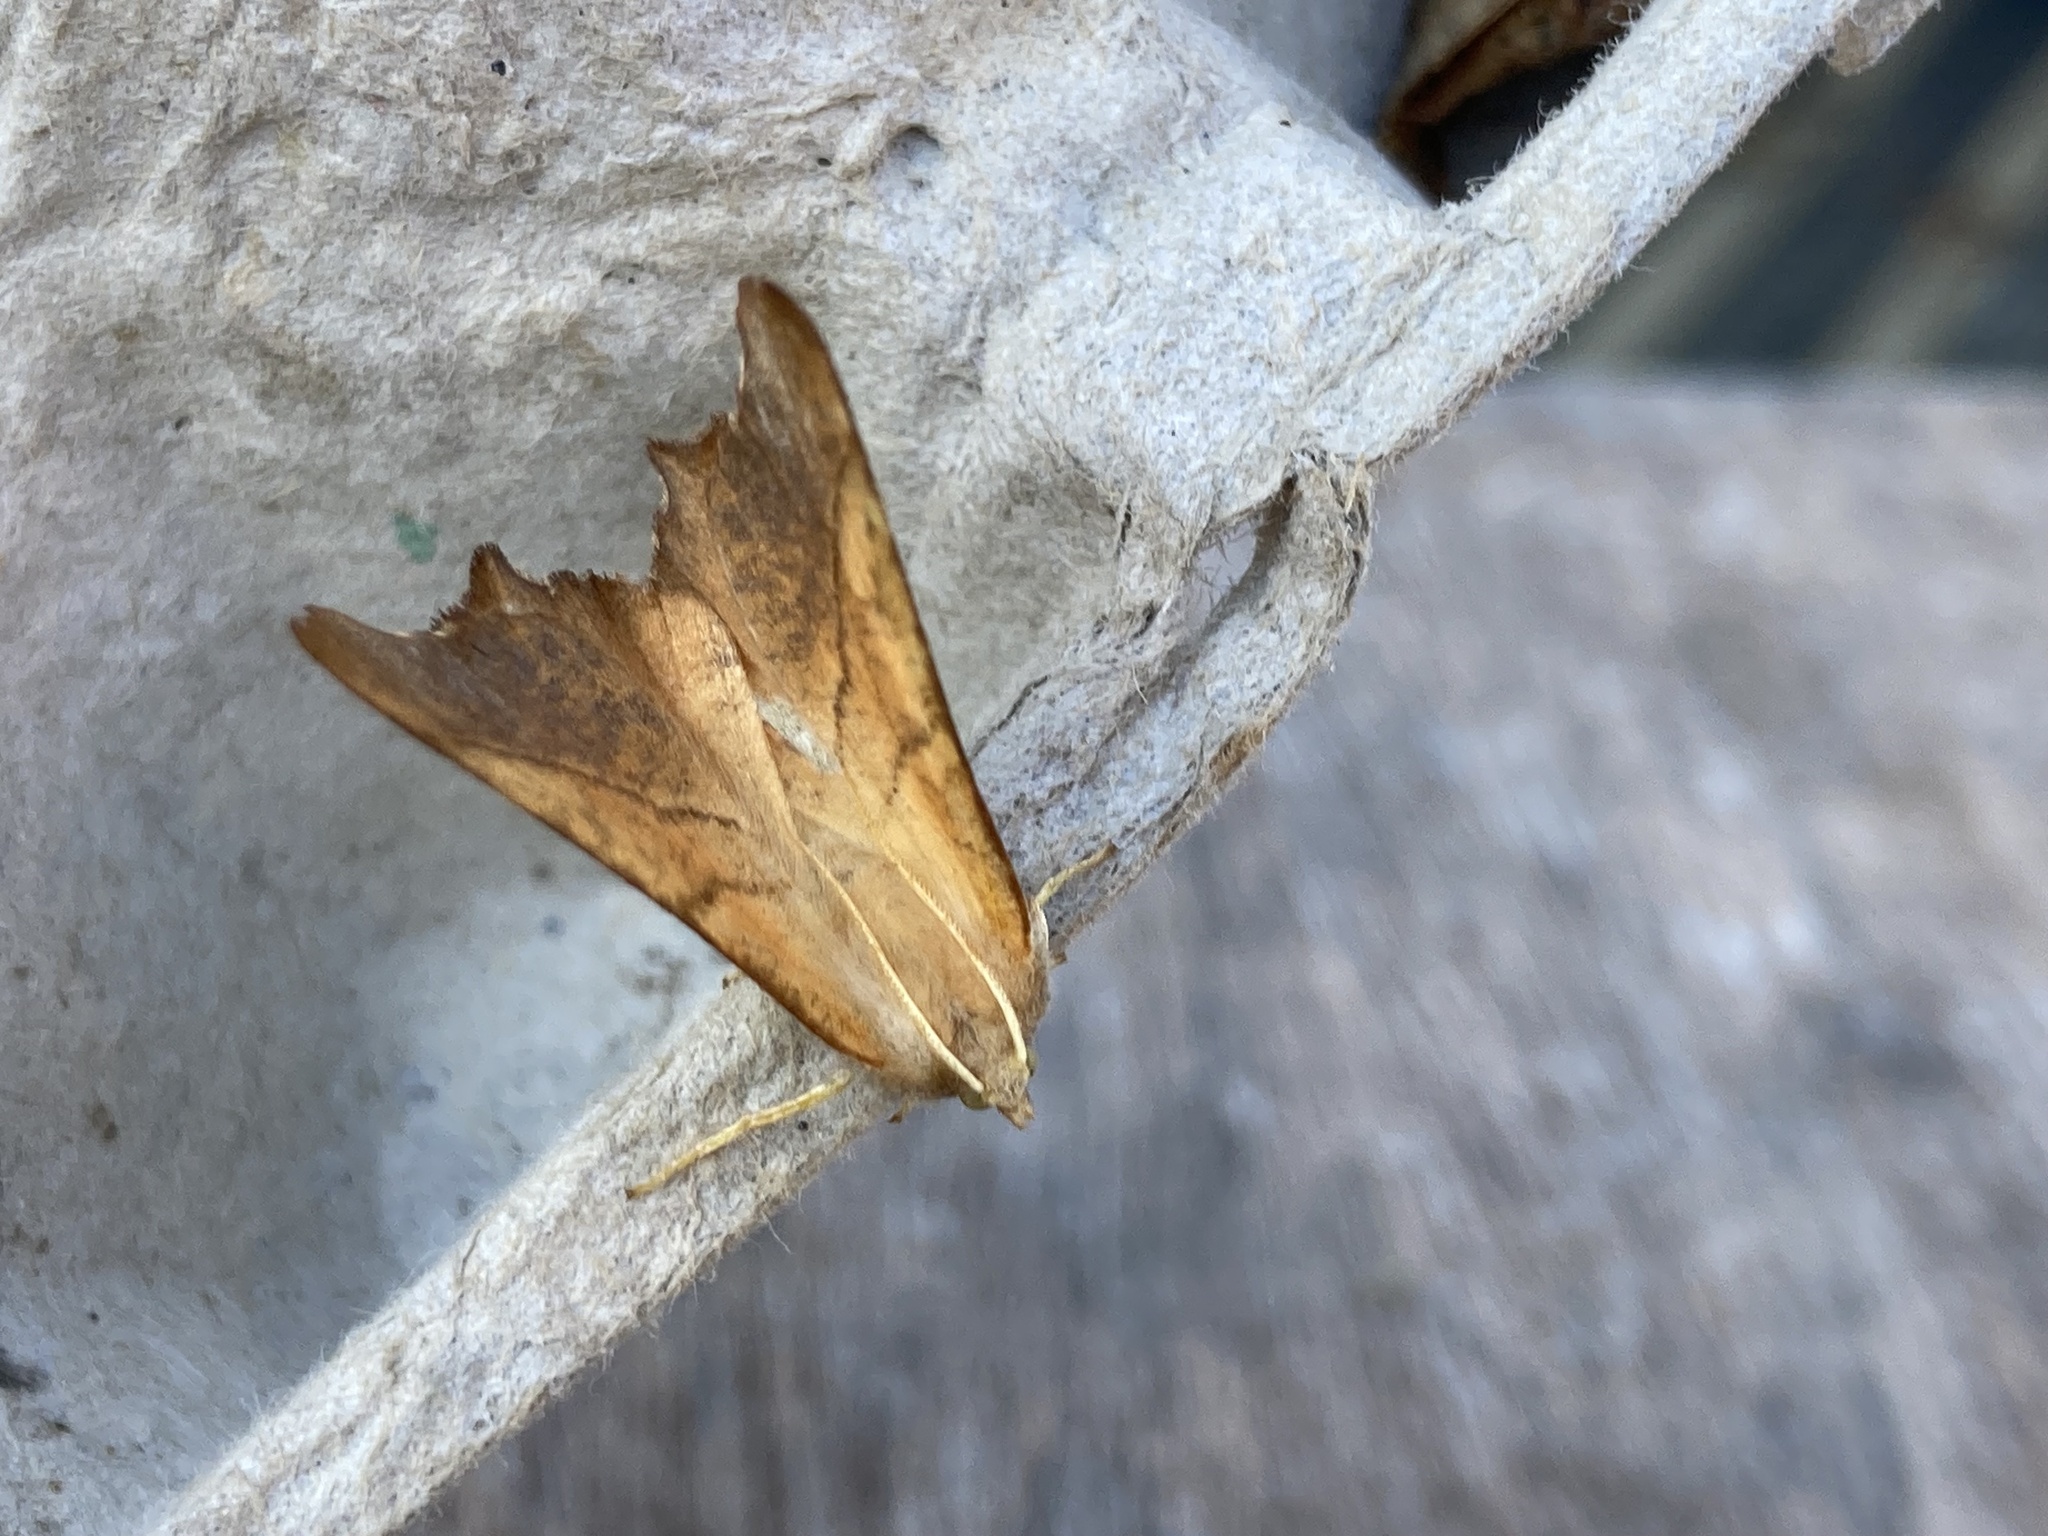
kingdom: Animalia
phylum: Arthropoda
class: Insecta
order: Lepidoptera
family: Geometridae
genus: Ennomos
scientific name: Ennomos fuscantaria
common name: Dusky thorn
